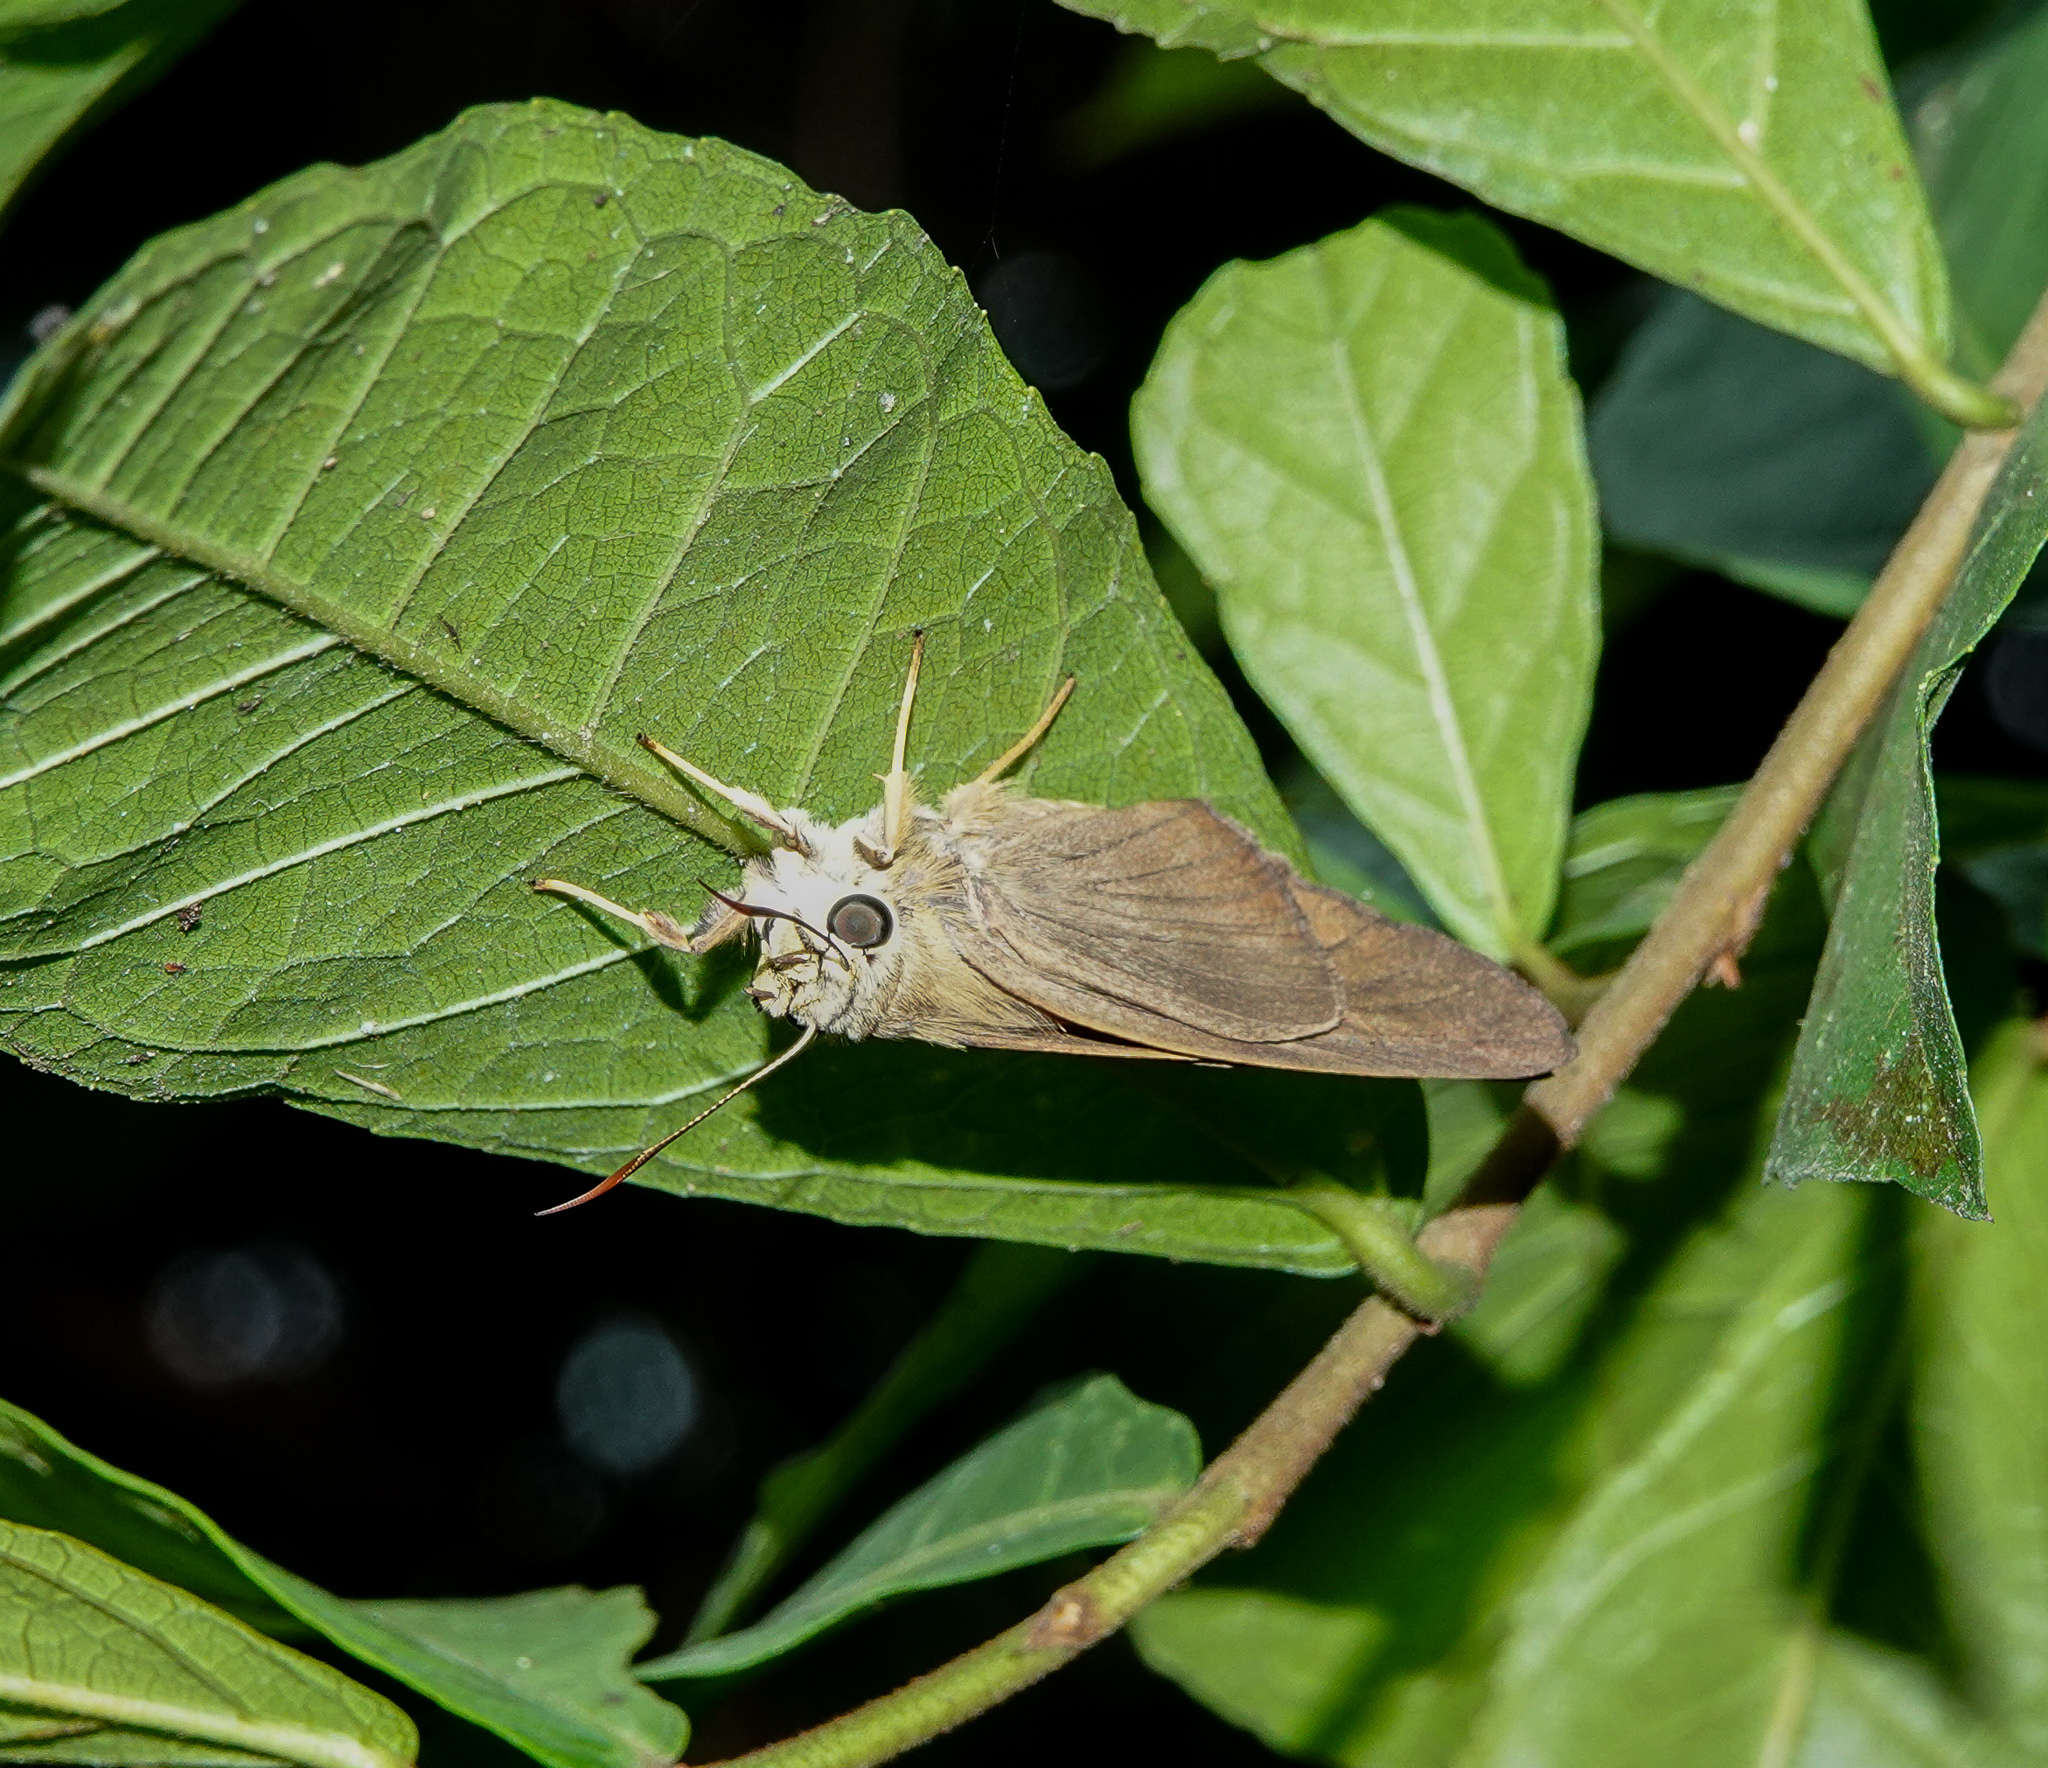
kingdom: Animalia
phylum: Arthropoda
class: Insecta
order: Lepidoptera
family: Hesperiidae
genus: Badamia
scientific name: Badamia exclamationis
